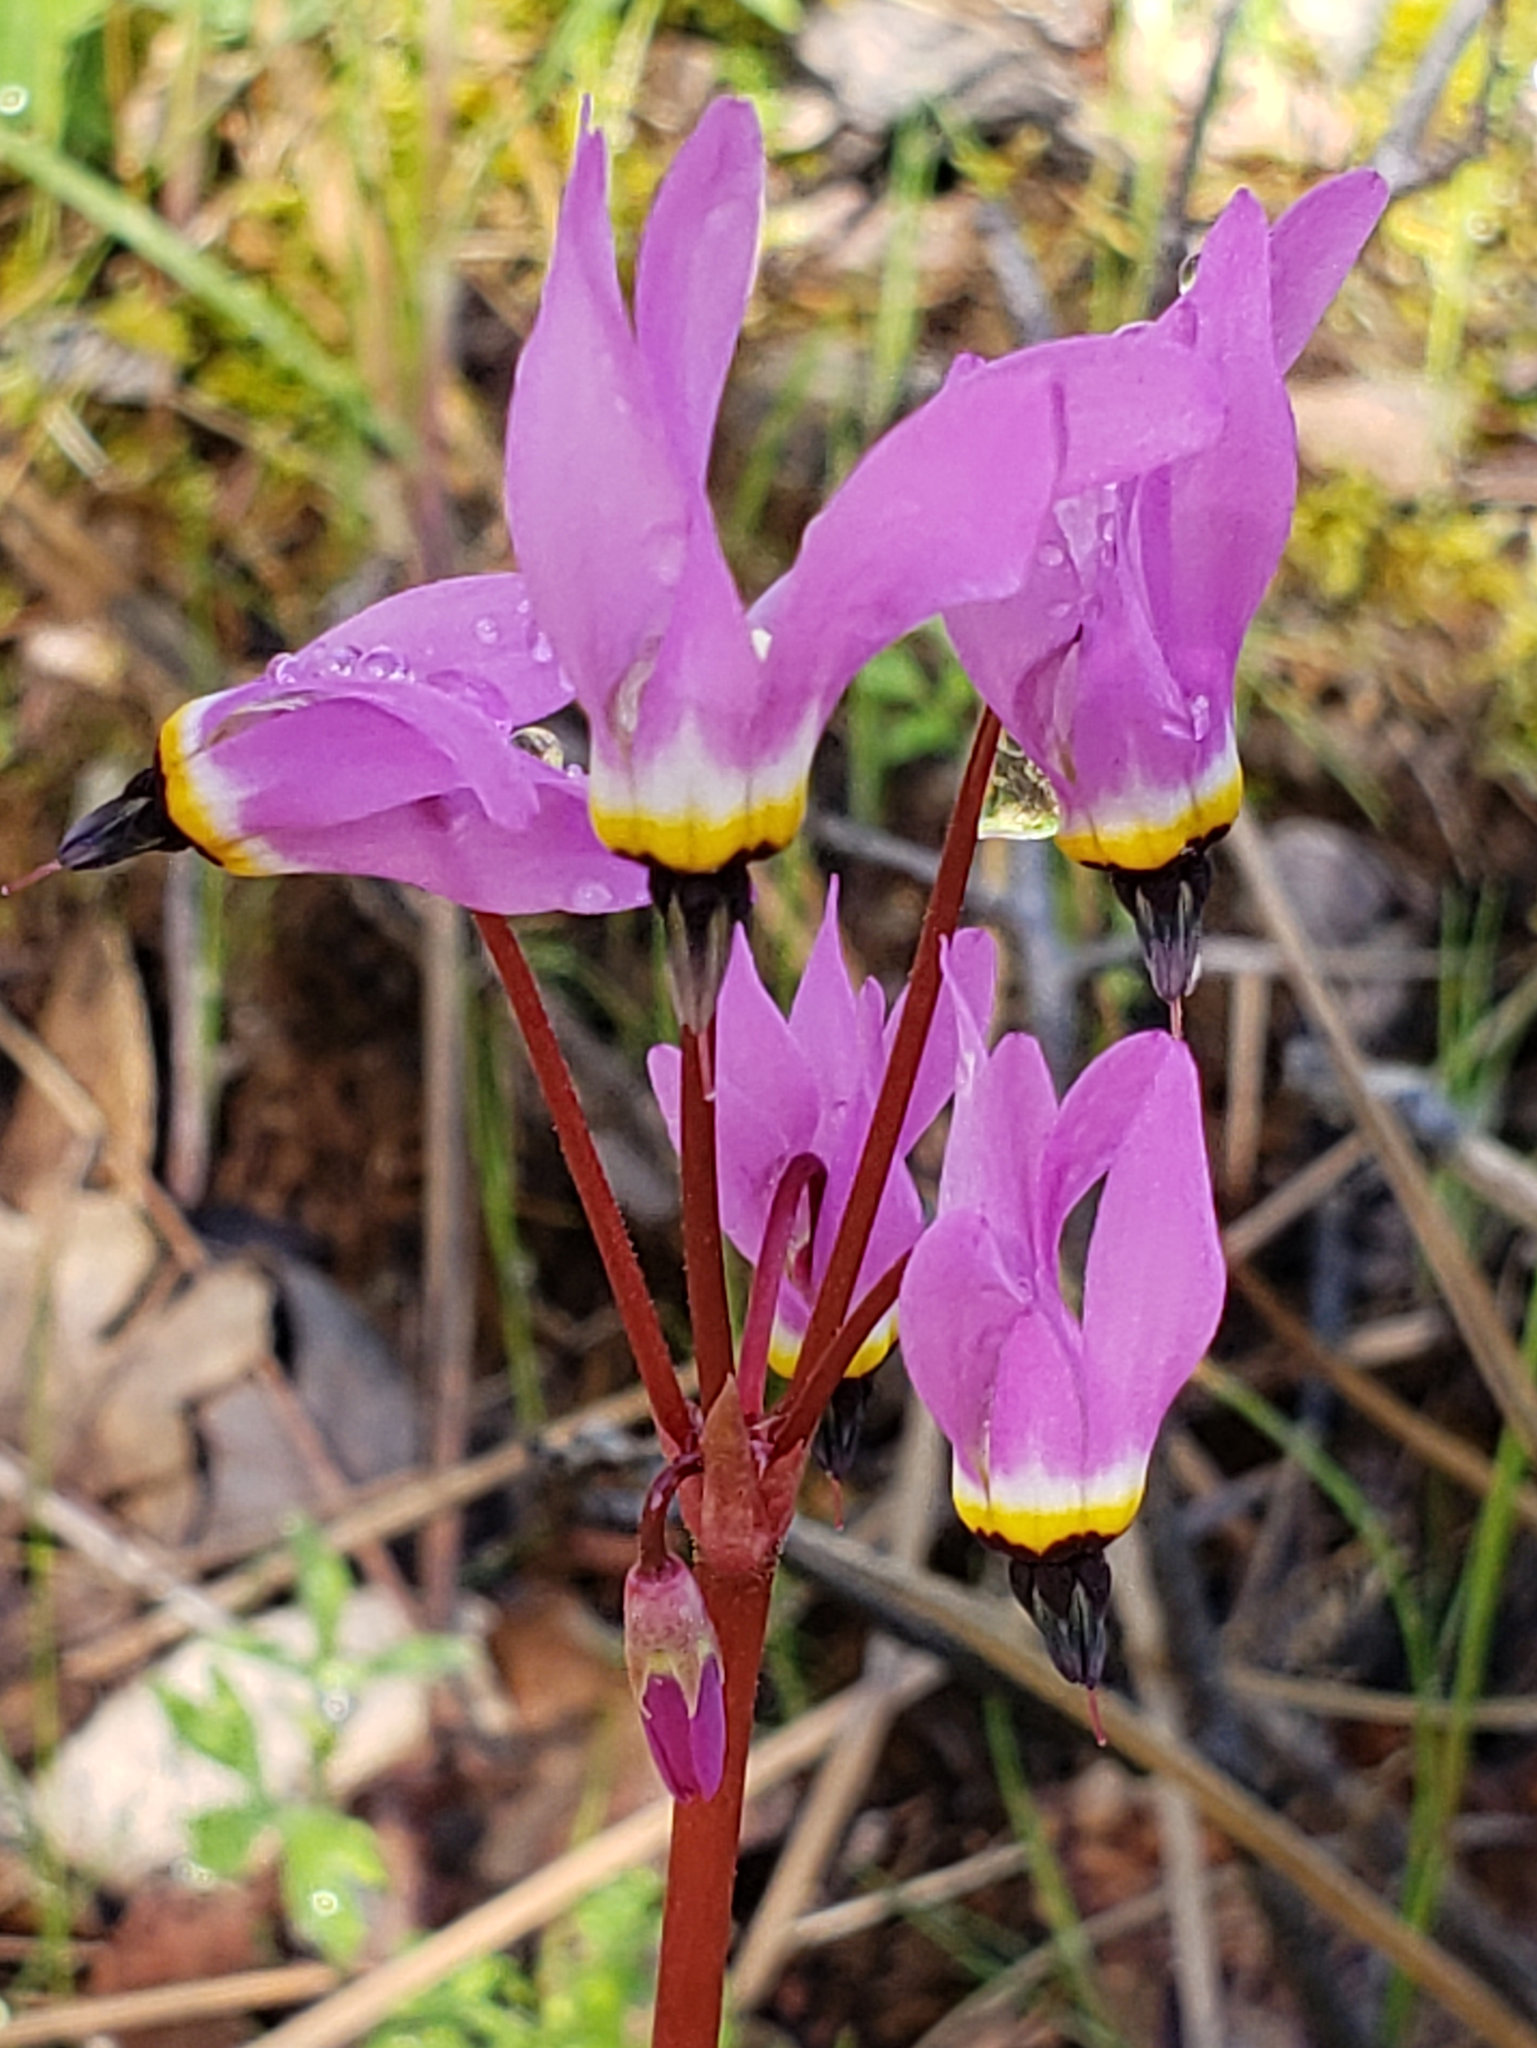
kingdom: Plantae
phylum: Tracheophyta
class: Magnoliopsida
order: Ericales
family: Primulaceae
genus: Dodecatheon
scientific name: Dodecatheon hendersonii
